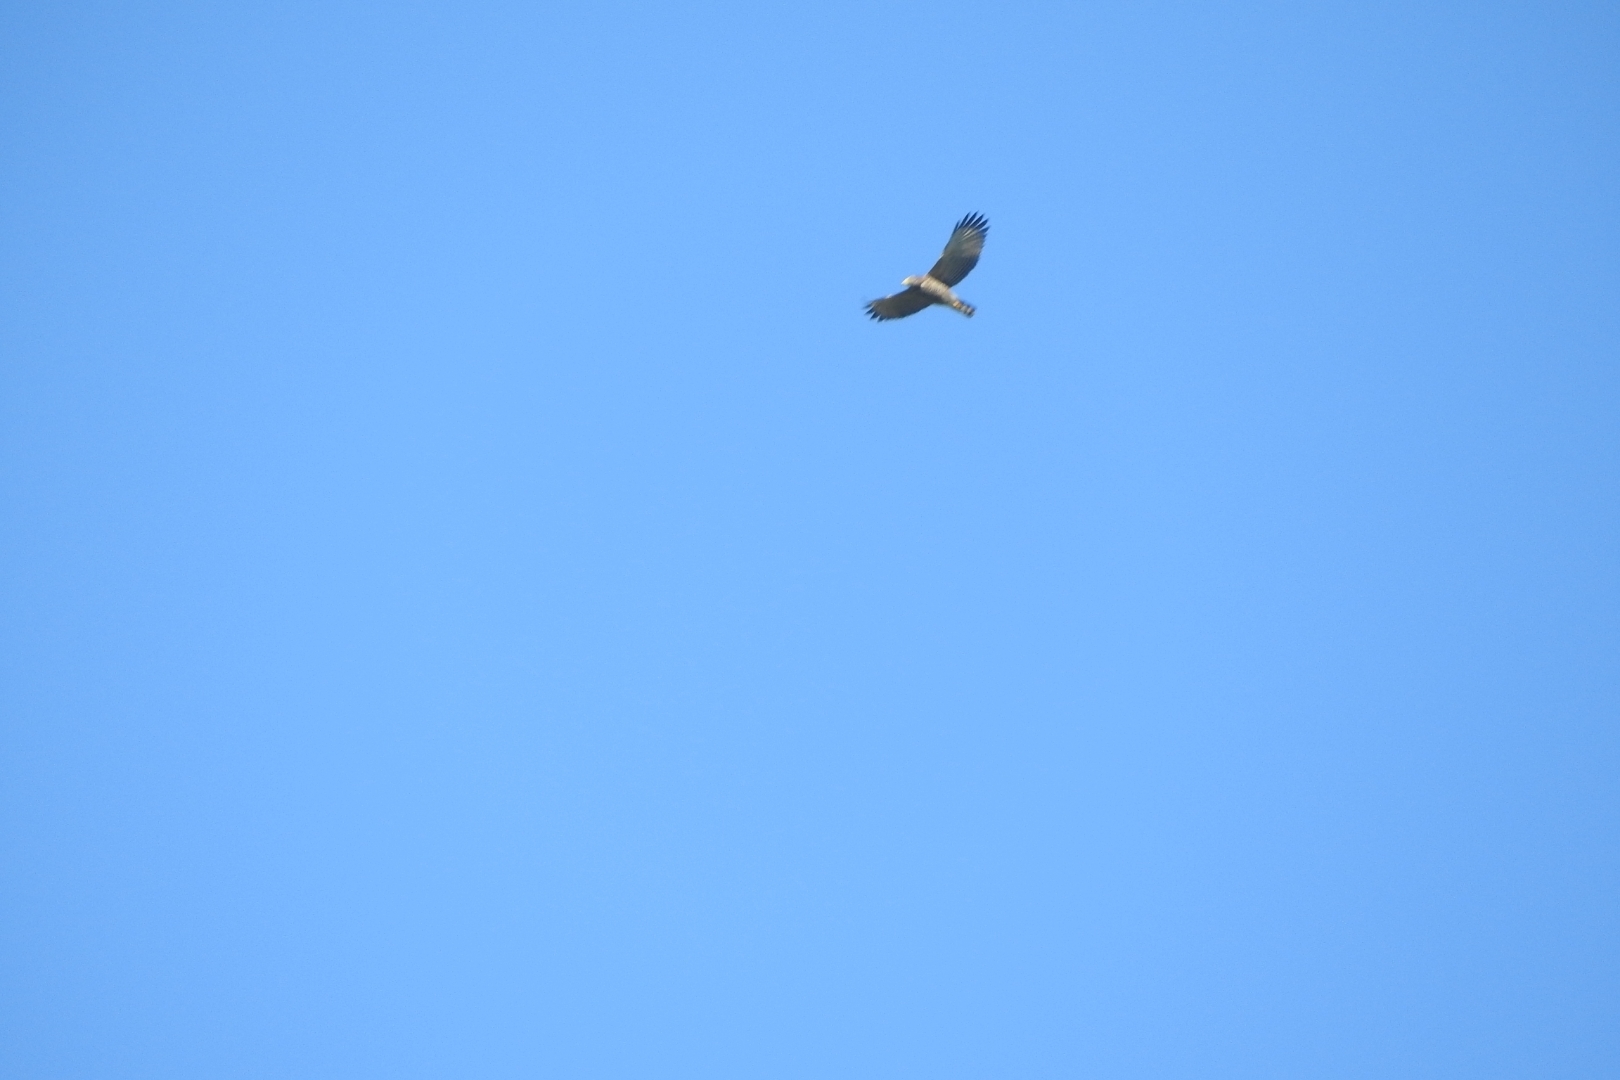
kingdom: Animalia
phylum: Chordata
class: Aves
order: Accipitriformes
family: Accipitridae
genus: Rupornis
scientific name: Rupornis magnirostris
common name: Roadside hawk
